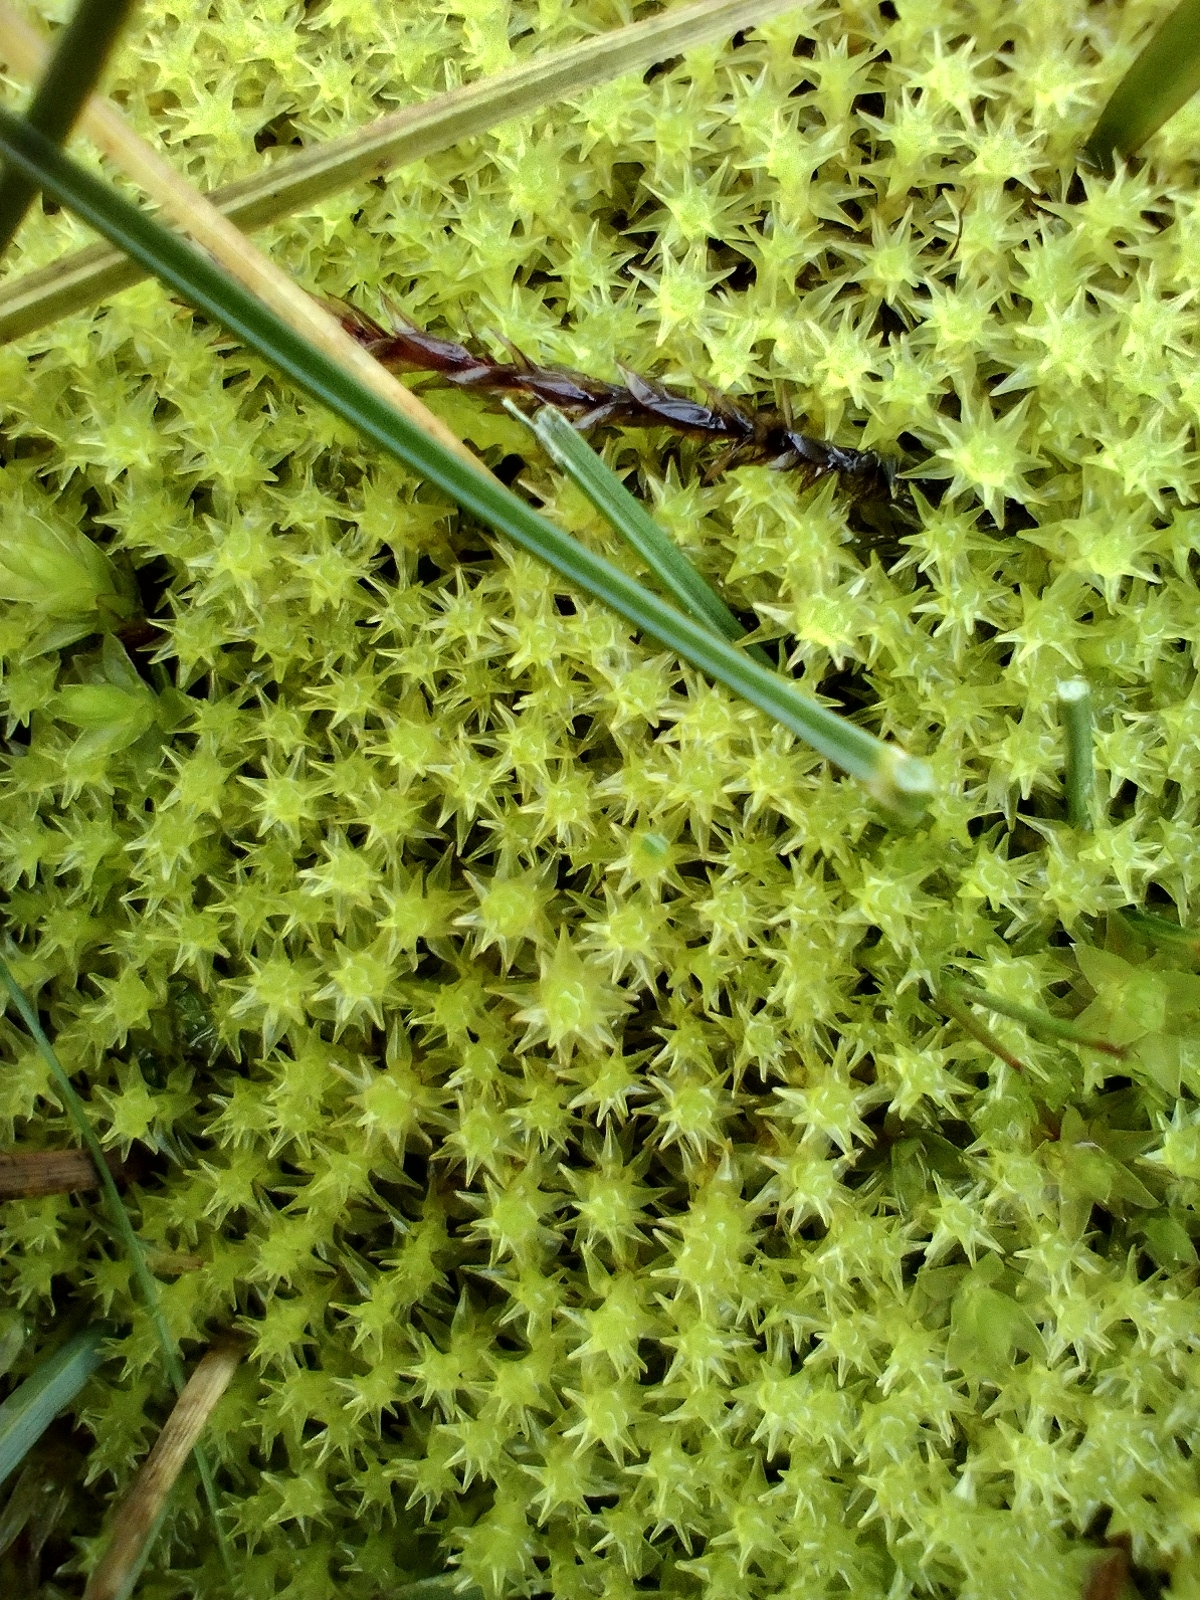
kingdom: Plantae
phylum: Bryophyta
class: Bryopsida
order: Dicranales
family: Aongstroemiaceae
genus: Diobelonella
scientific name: Diobelonella palustris
